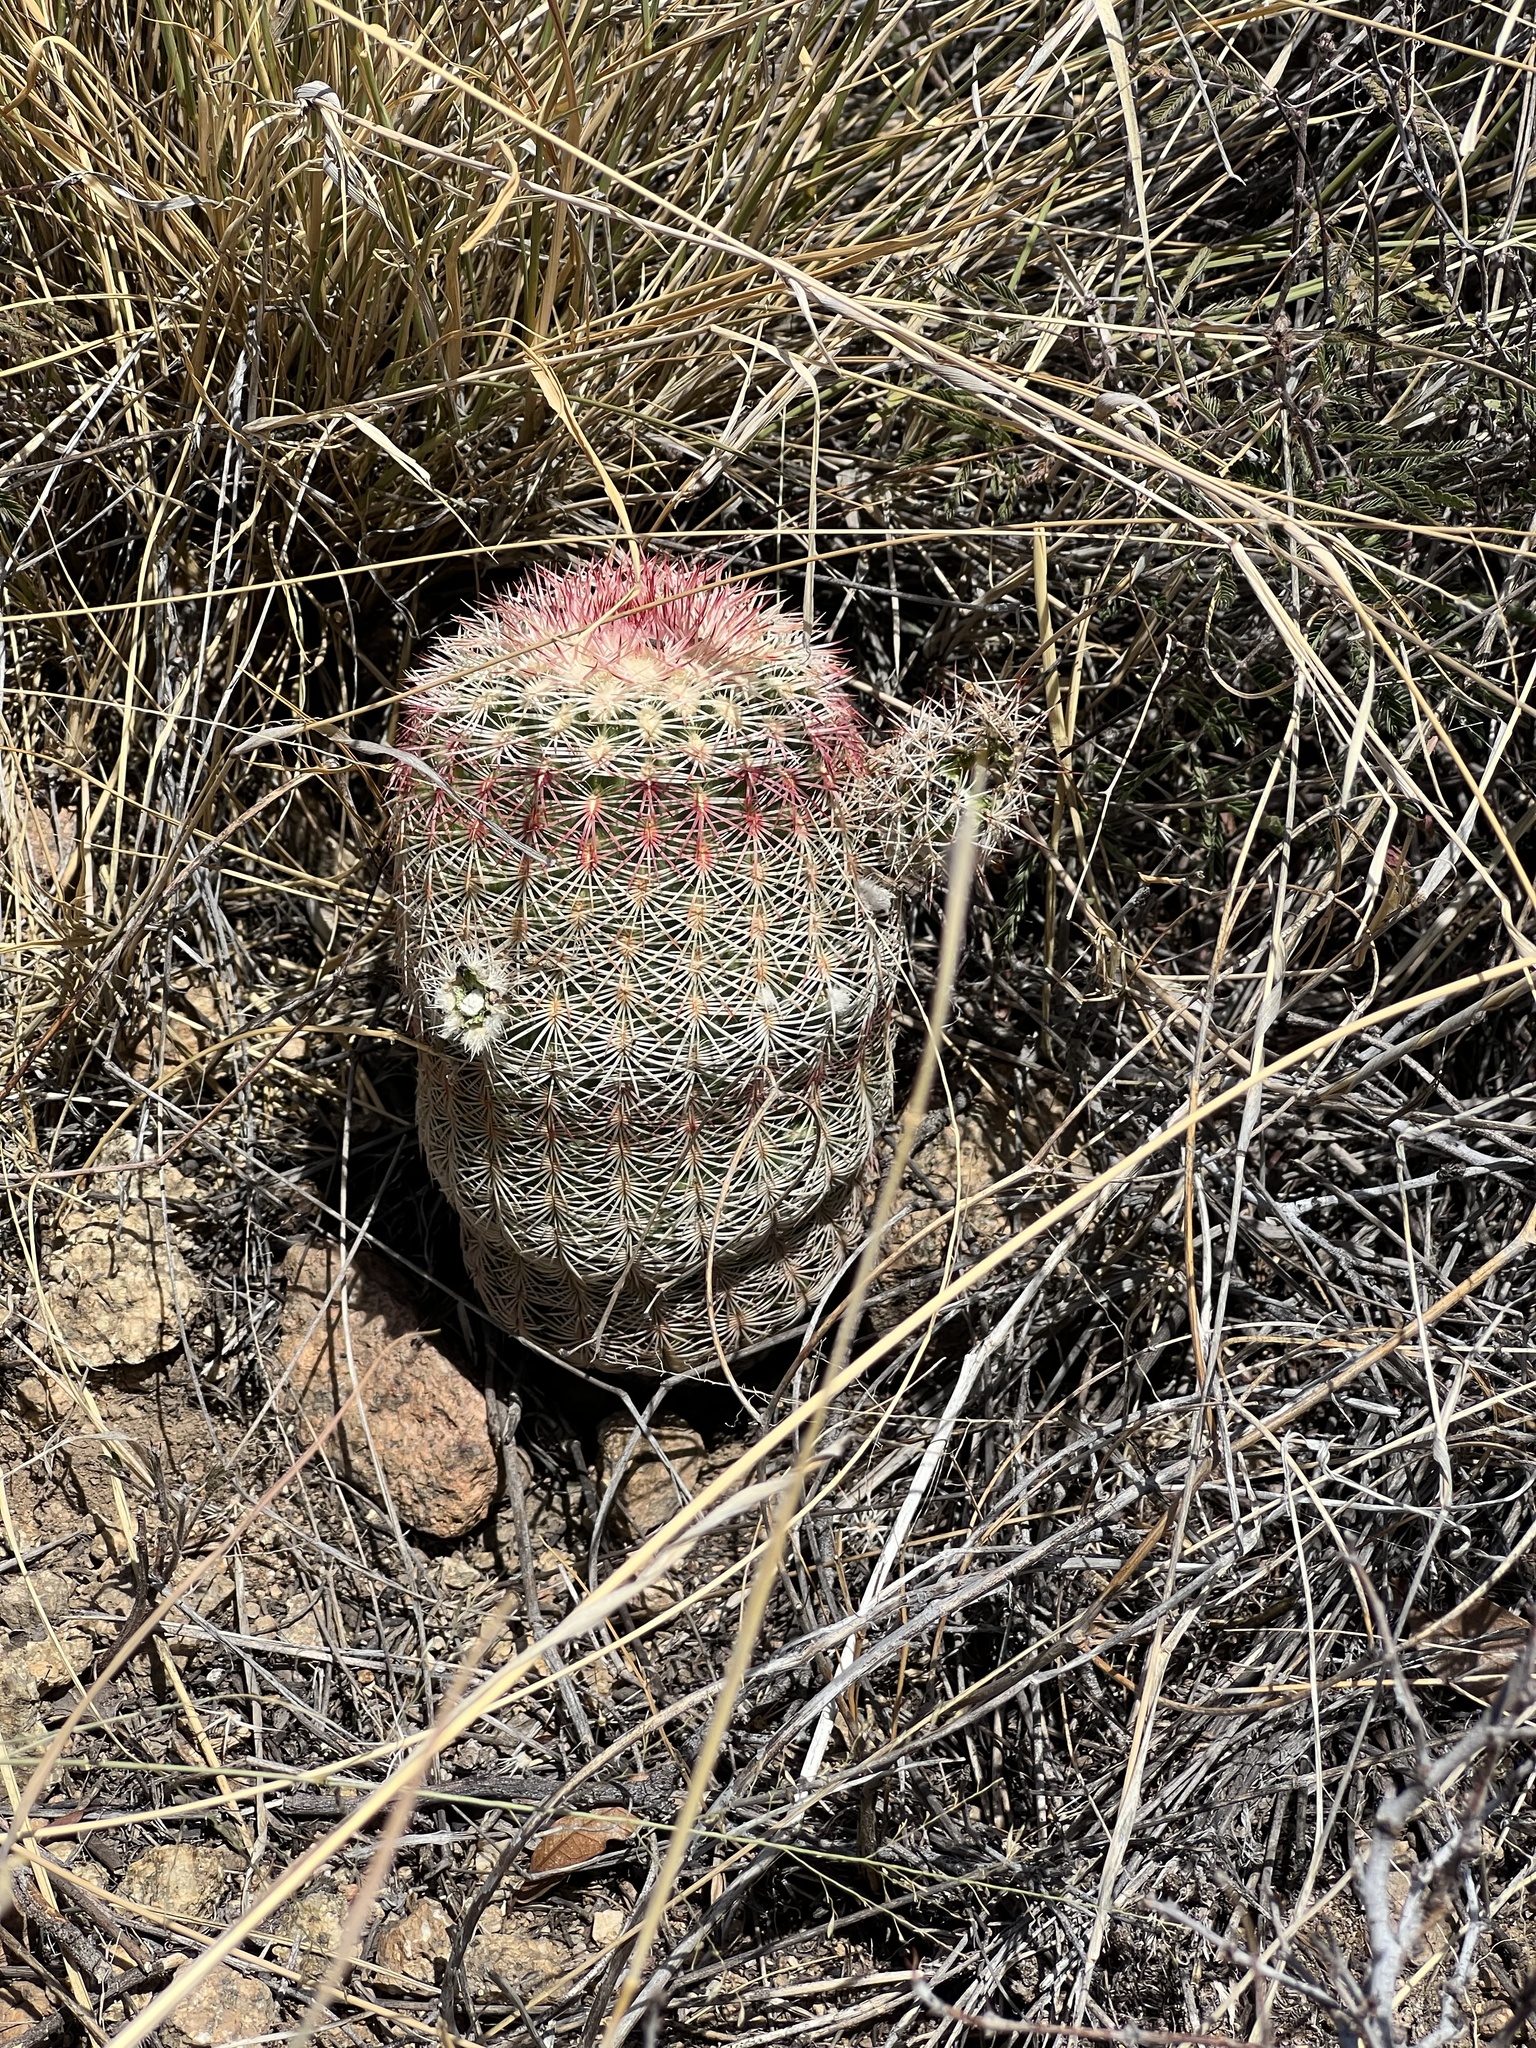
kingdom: Plantae
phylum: Tracheophyta
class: Magnoliopsida
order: Caryophyllales
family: Cactaceae
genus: Echinocereus
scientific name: Echinocereus rigidissimus
